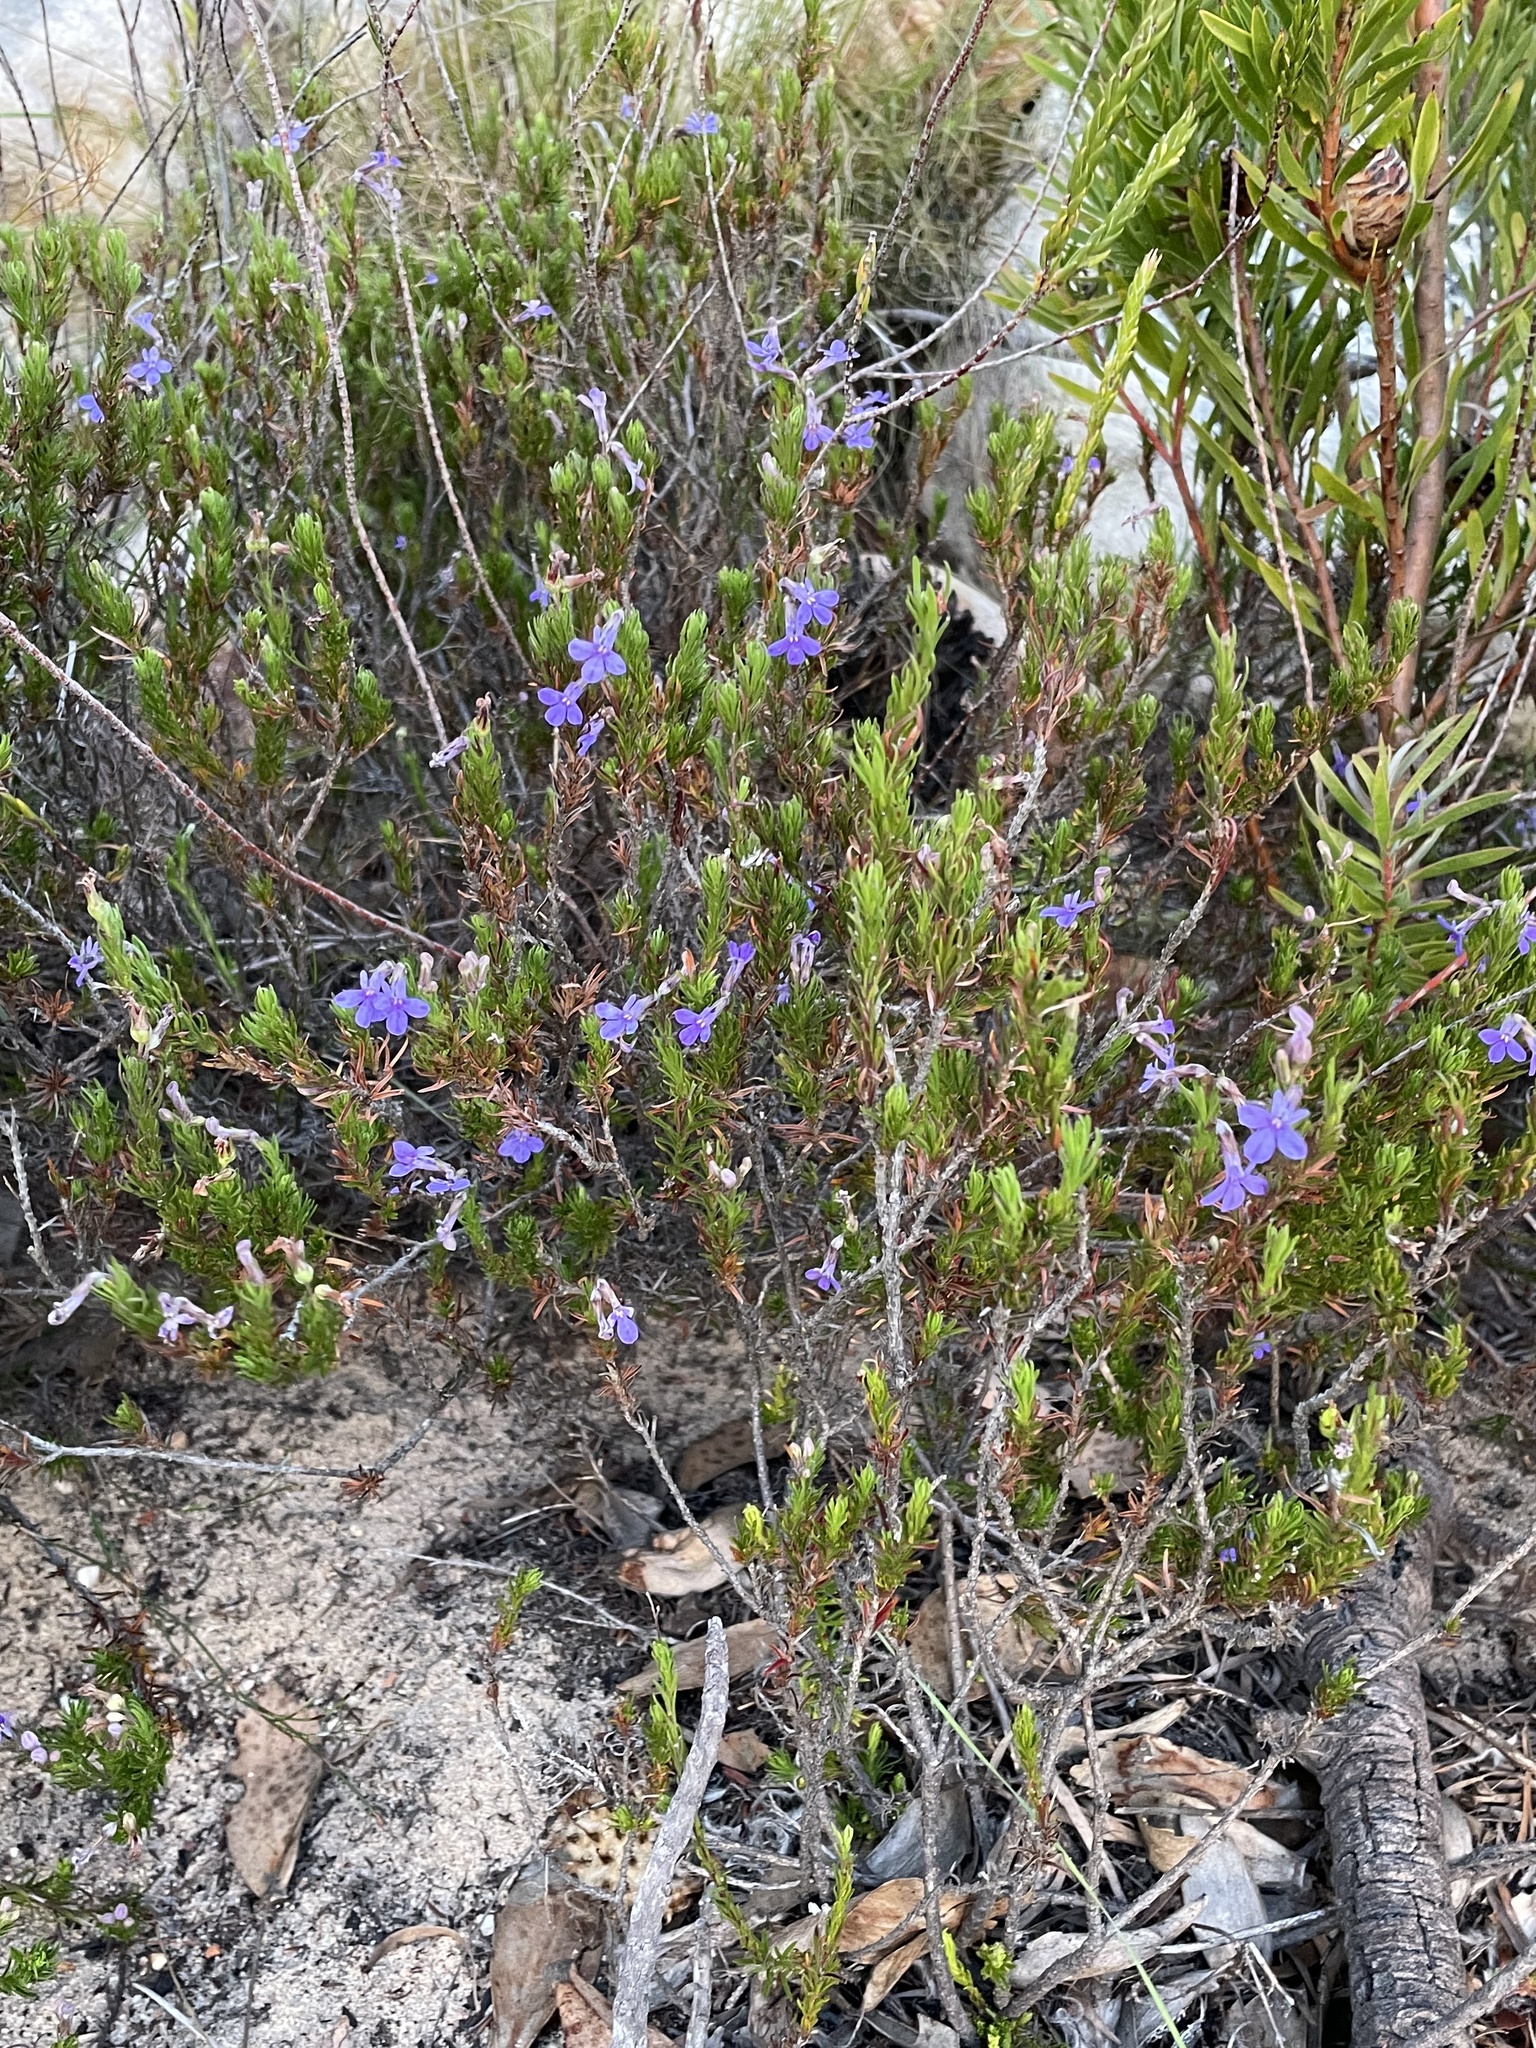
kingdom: Plantae
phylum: Tracheophyta
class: Magnoliopsida
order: Asterales
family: Campanulaceae
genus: Lobelia
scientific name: Lobelia pinifolia
